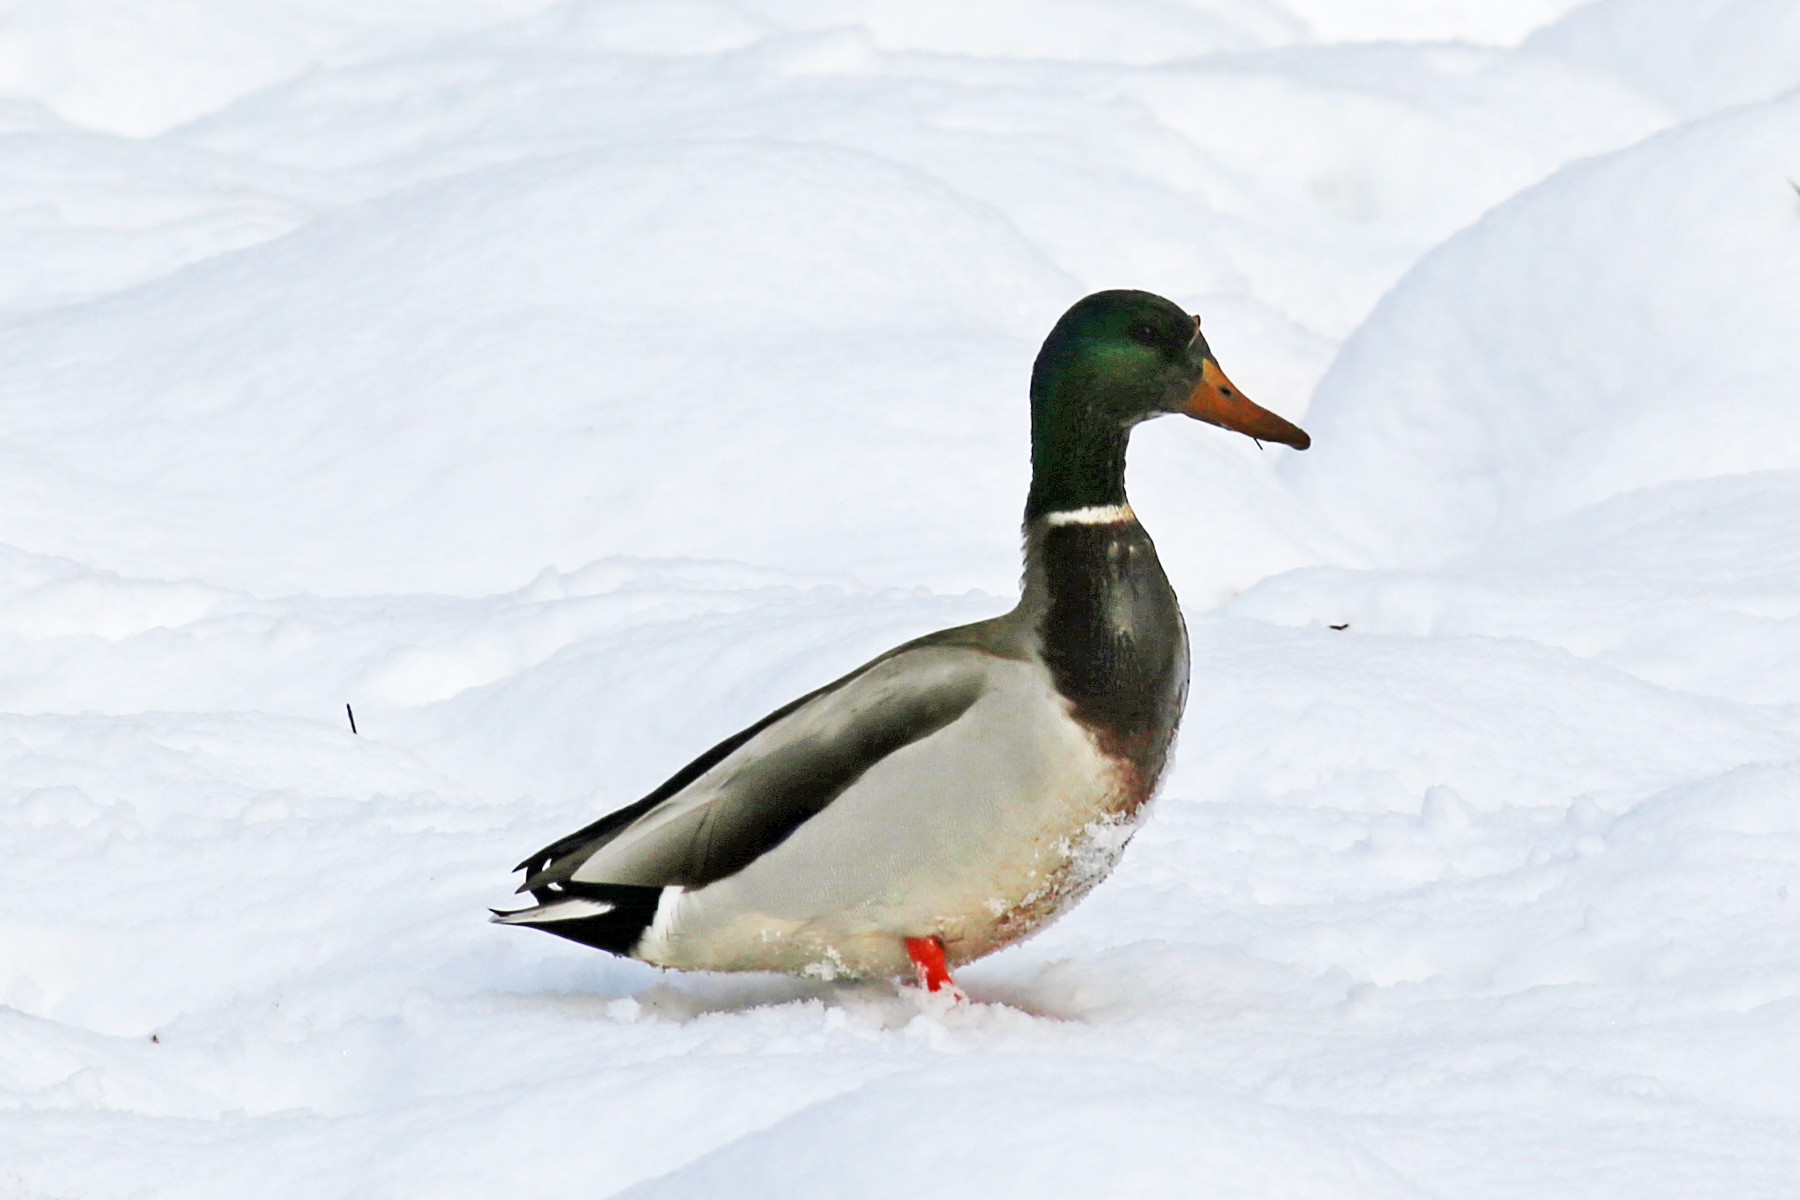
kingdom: Animalia
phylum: Chordata
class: Aves
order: Anseriformes
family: Anatidae
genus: Anas
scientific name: Anas platyrhynchos
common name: Mallard
